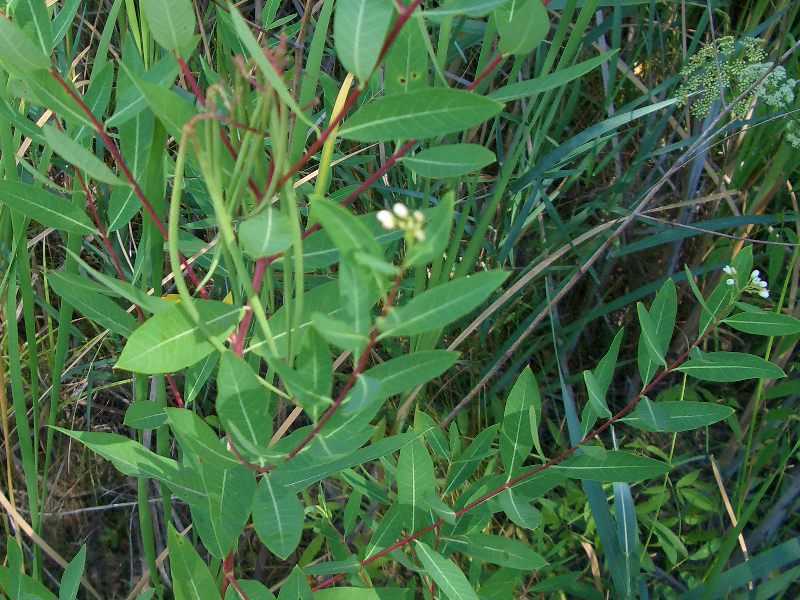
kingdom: Plantae
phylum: Tracheophyta
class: Magnoliopsida
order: Gentianales
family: Apocynaceae
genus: Apocynum
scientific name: Apocynum cannabinum
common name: Hemp dogbane
